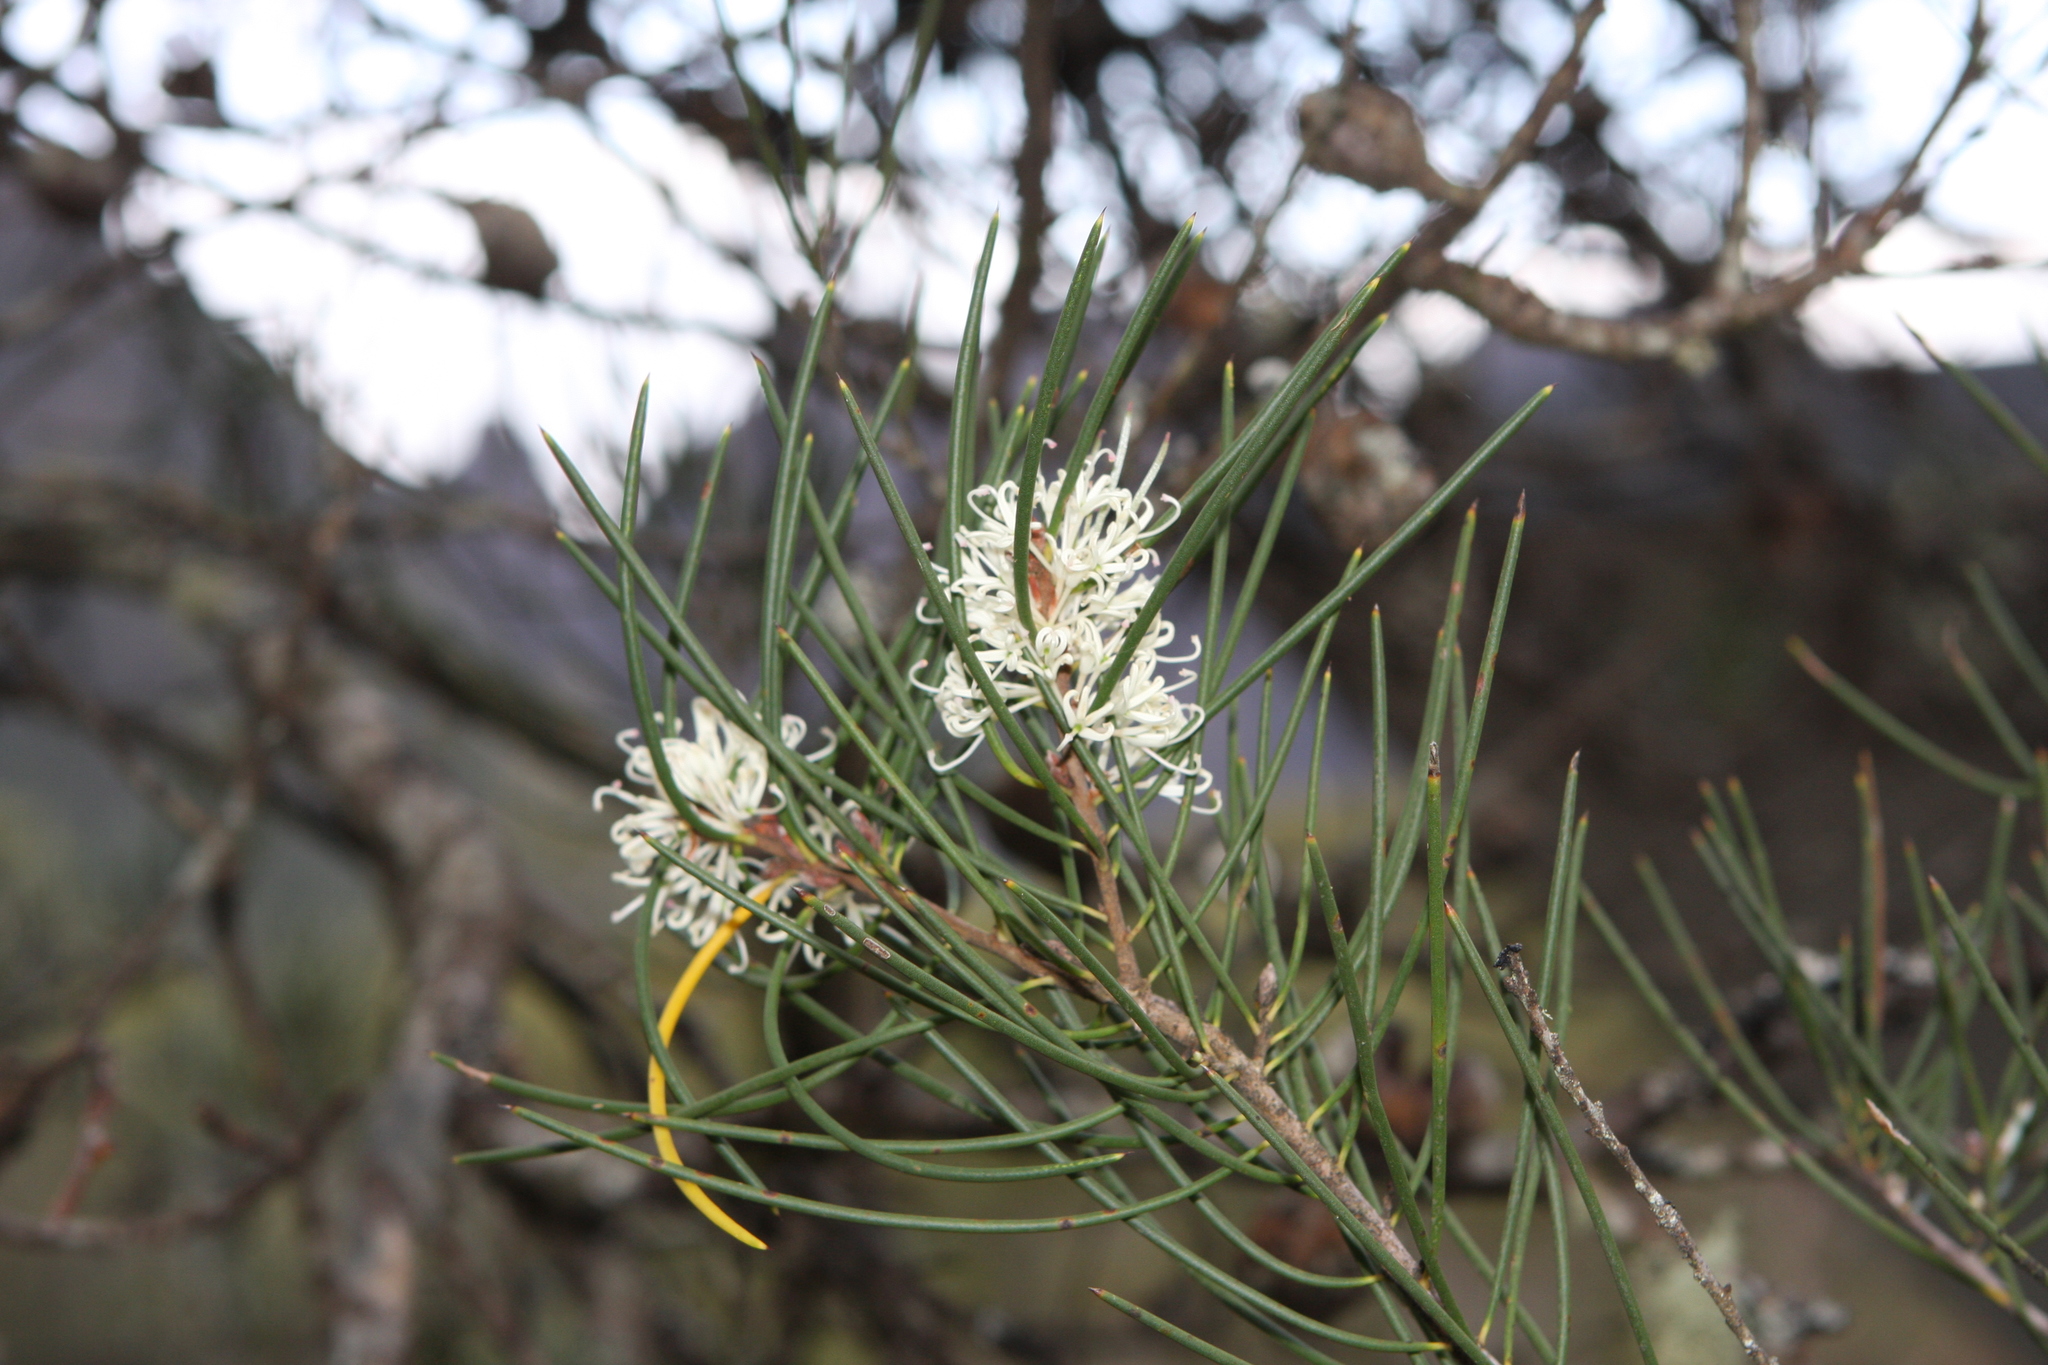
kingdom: Plantae
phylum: Tracheophyta
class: Magnoliopsida
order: Proteales
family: Proteaceae
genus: Hakea
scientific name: Hakea lissosperma
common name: Mountain needlewood
